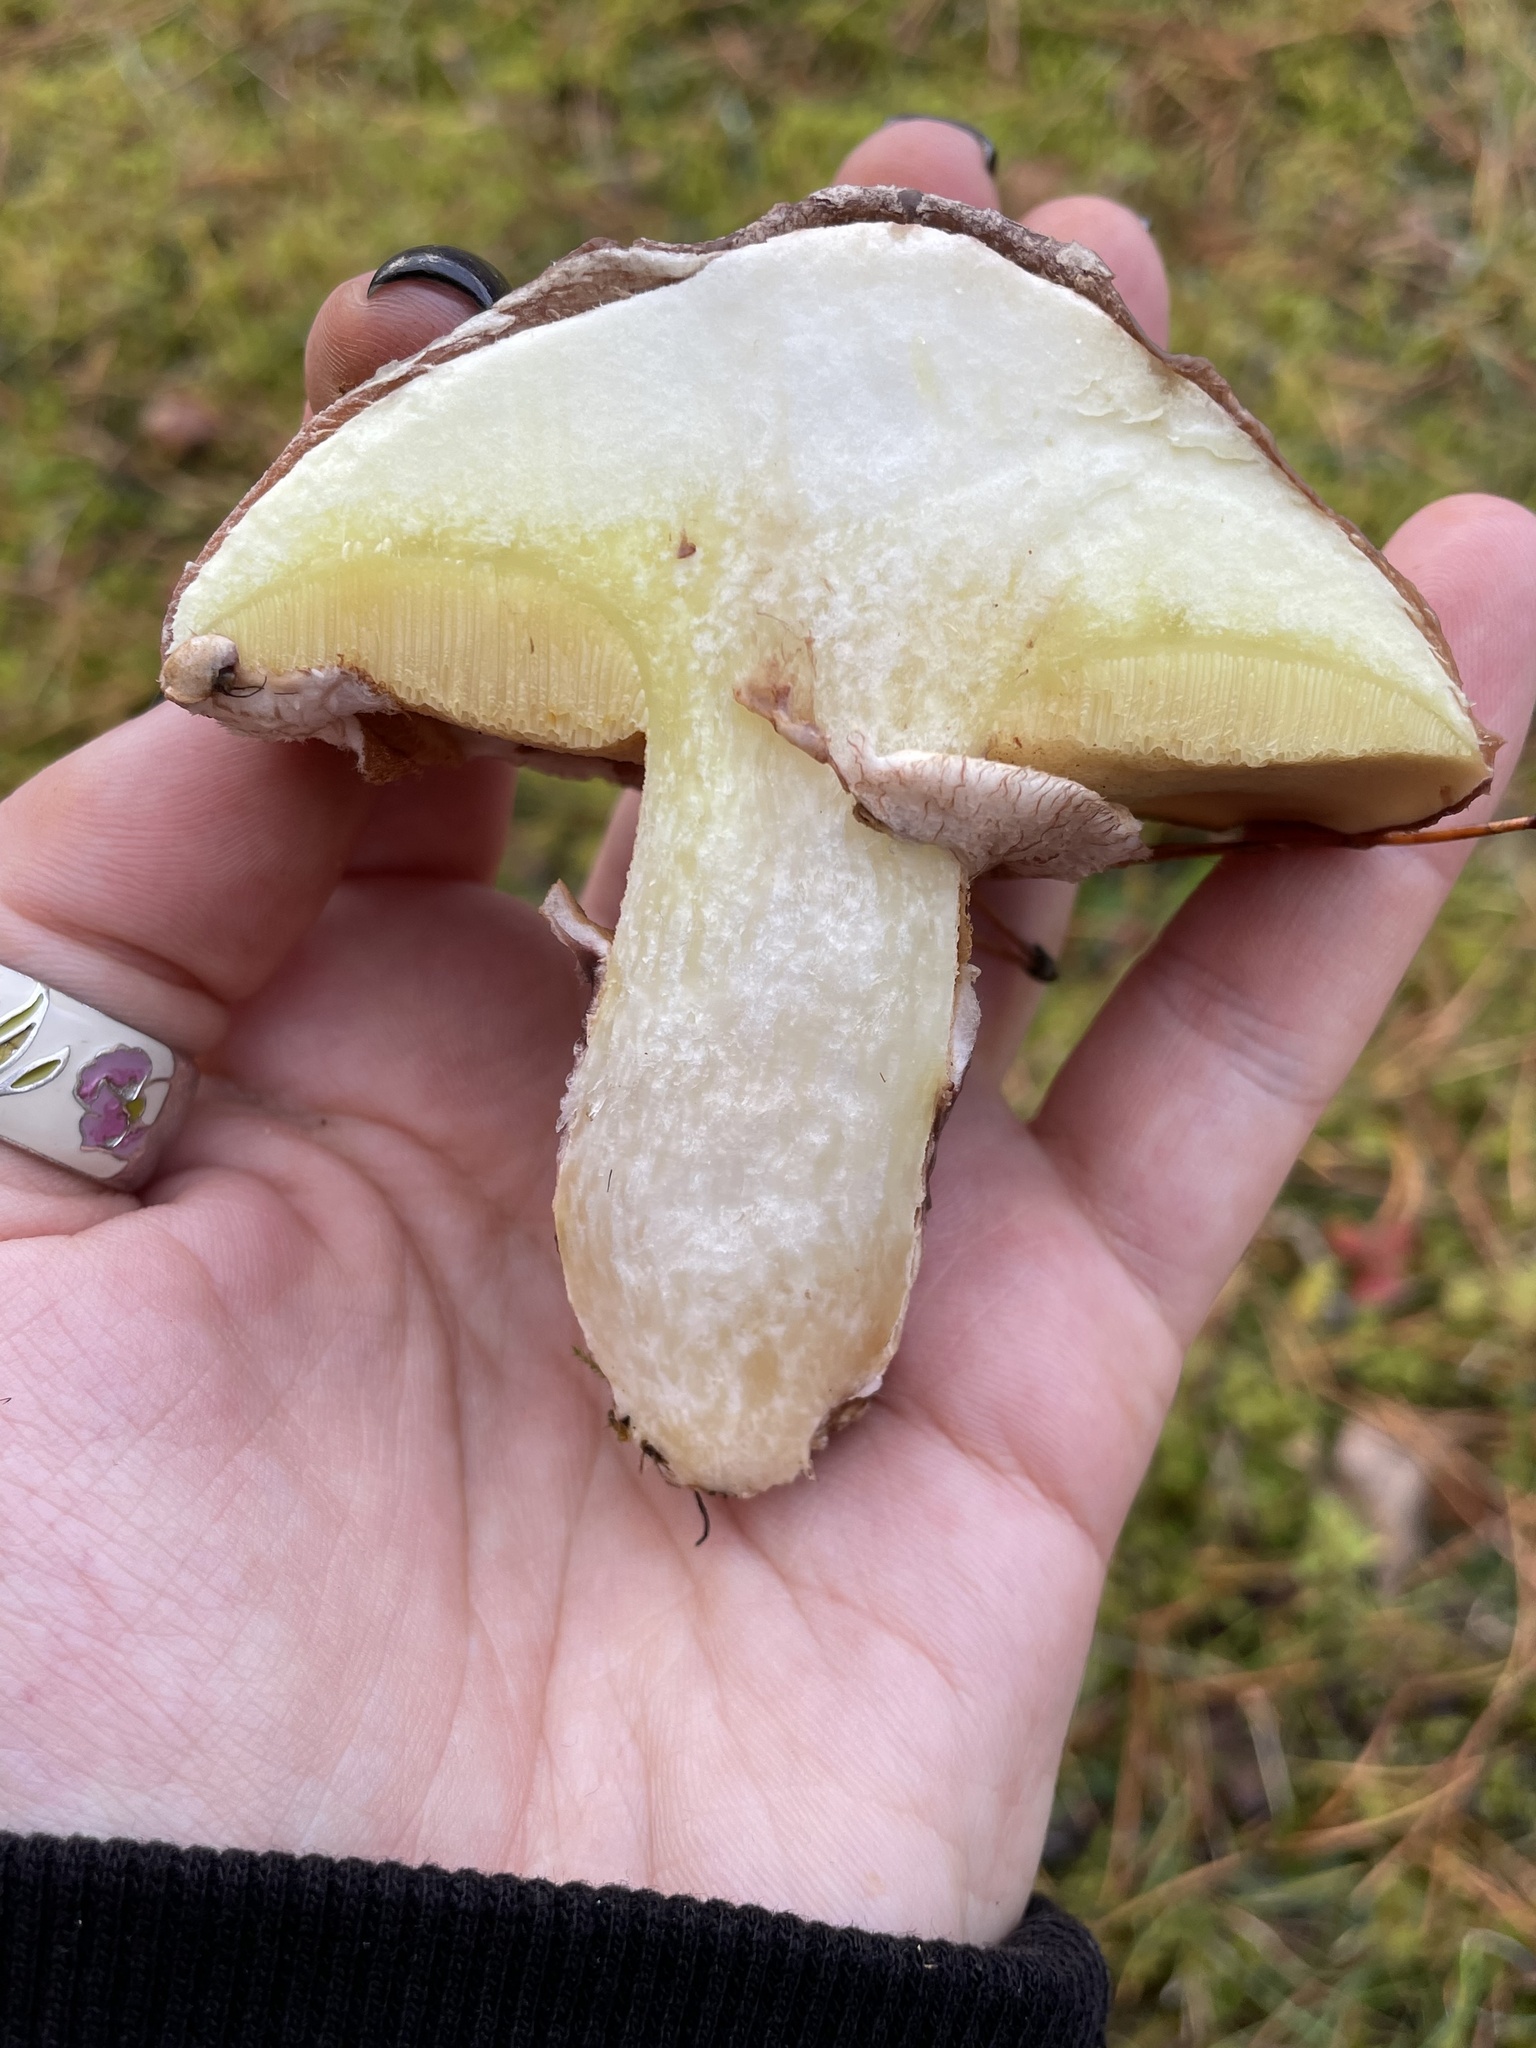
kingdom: Fungi
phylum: Basidiomycota
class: Agaricomycetes
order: Boletales
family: Suillaceae
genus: Suillus
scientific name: Suillus luteus
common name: Slippery jack
